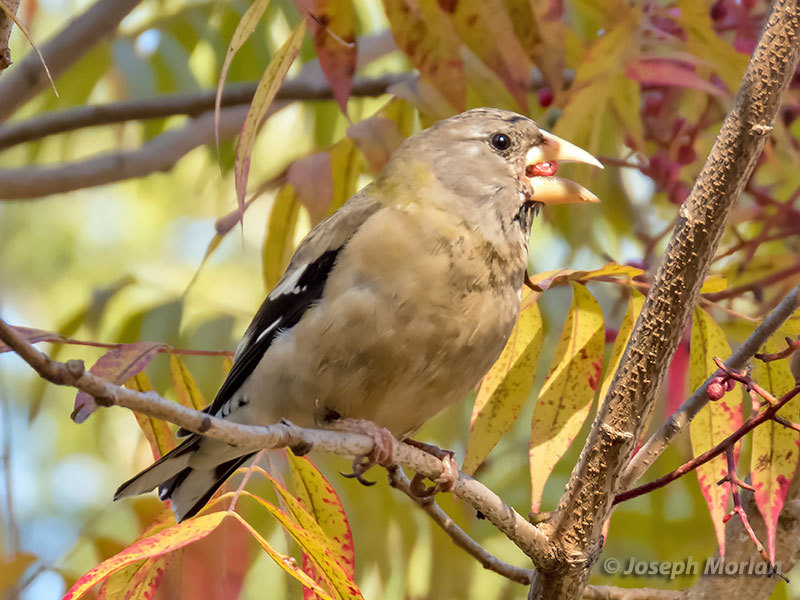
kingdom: Animalia
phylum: Chordata
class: Aves
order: Passeriformes
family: Fringillidae
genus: Hesperiphona
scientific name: Hesperiphona vespertina
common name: Evening grosbeak
